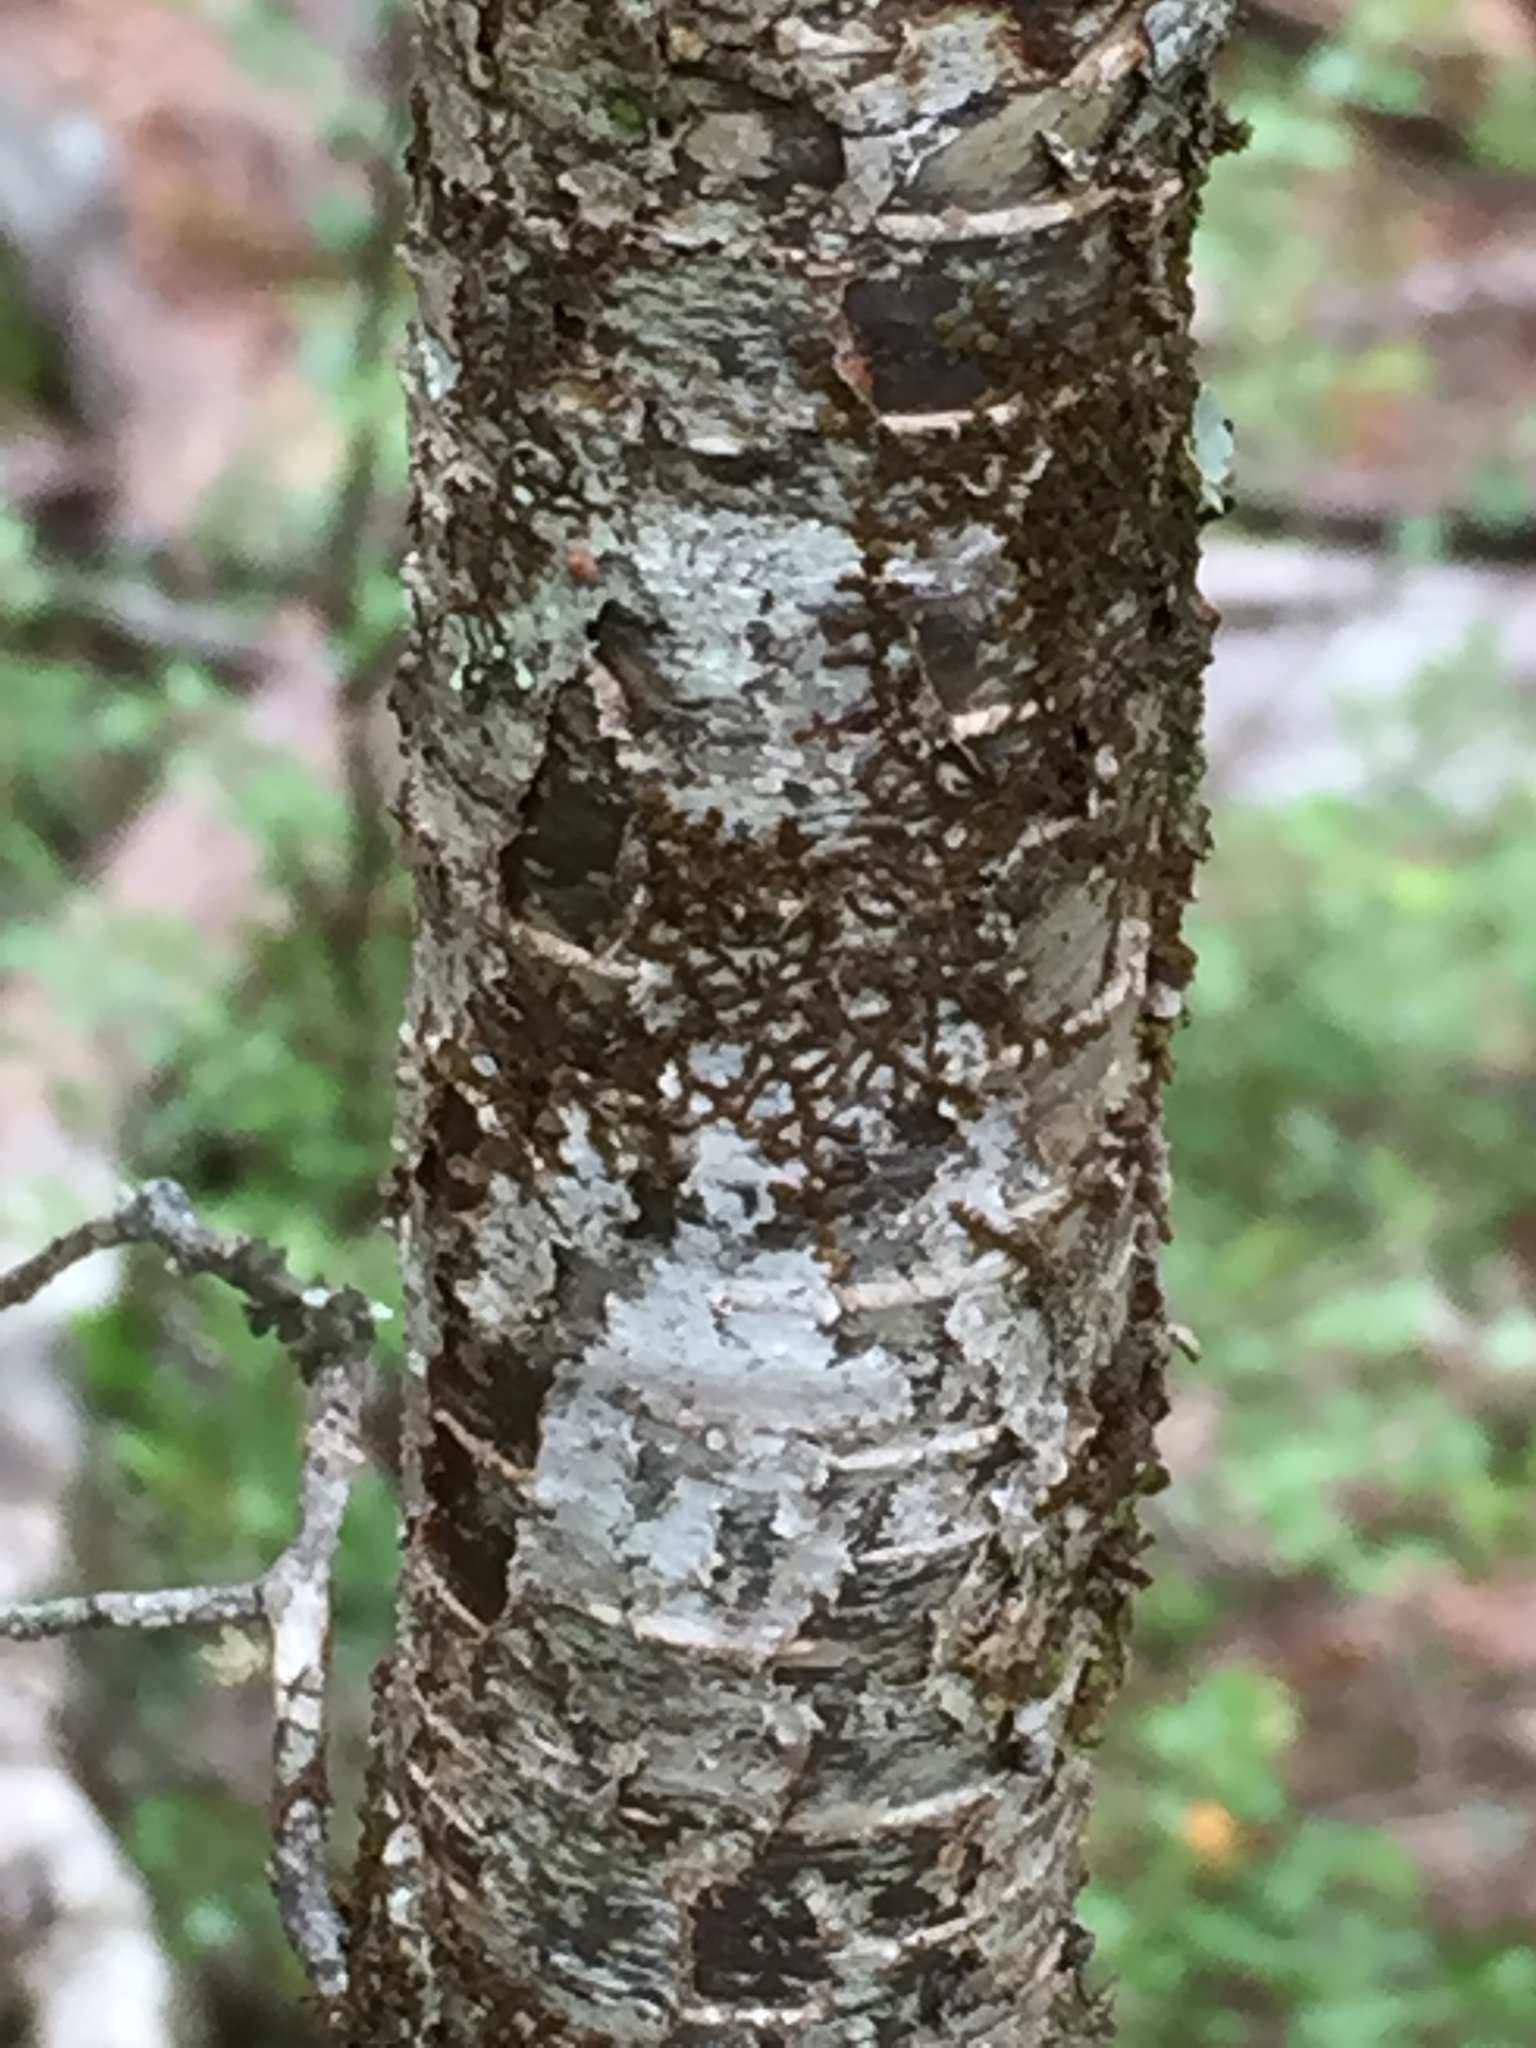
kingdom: Plantae
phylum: Tracheophyta
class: Magnoliopsida
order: Fagales
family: Nothofagaceae
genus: Nothofagus
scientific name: Nothofagus menziesii
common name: Silver beech
